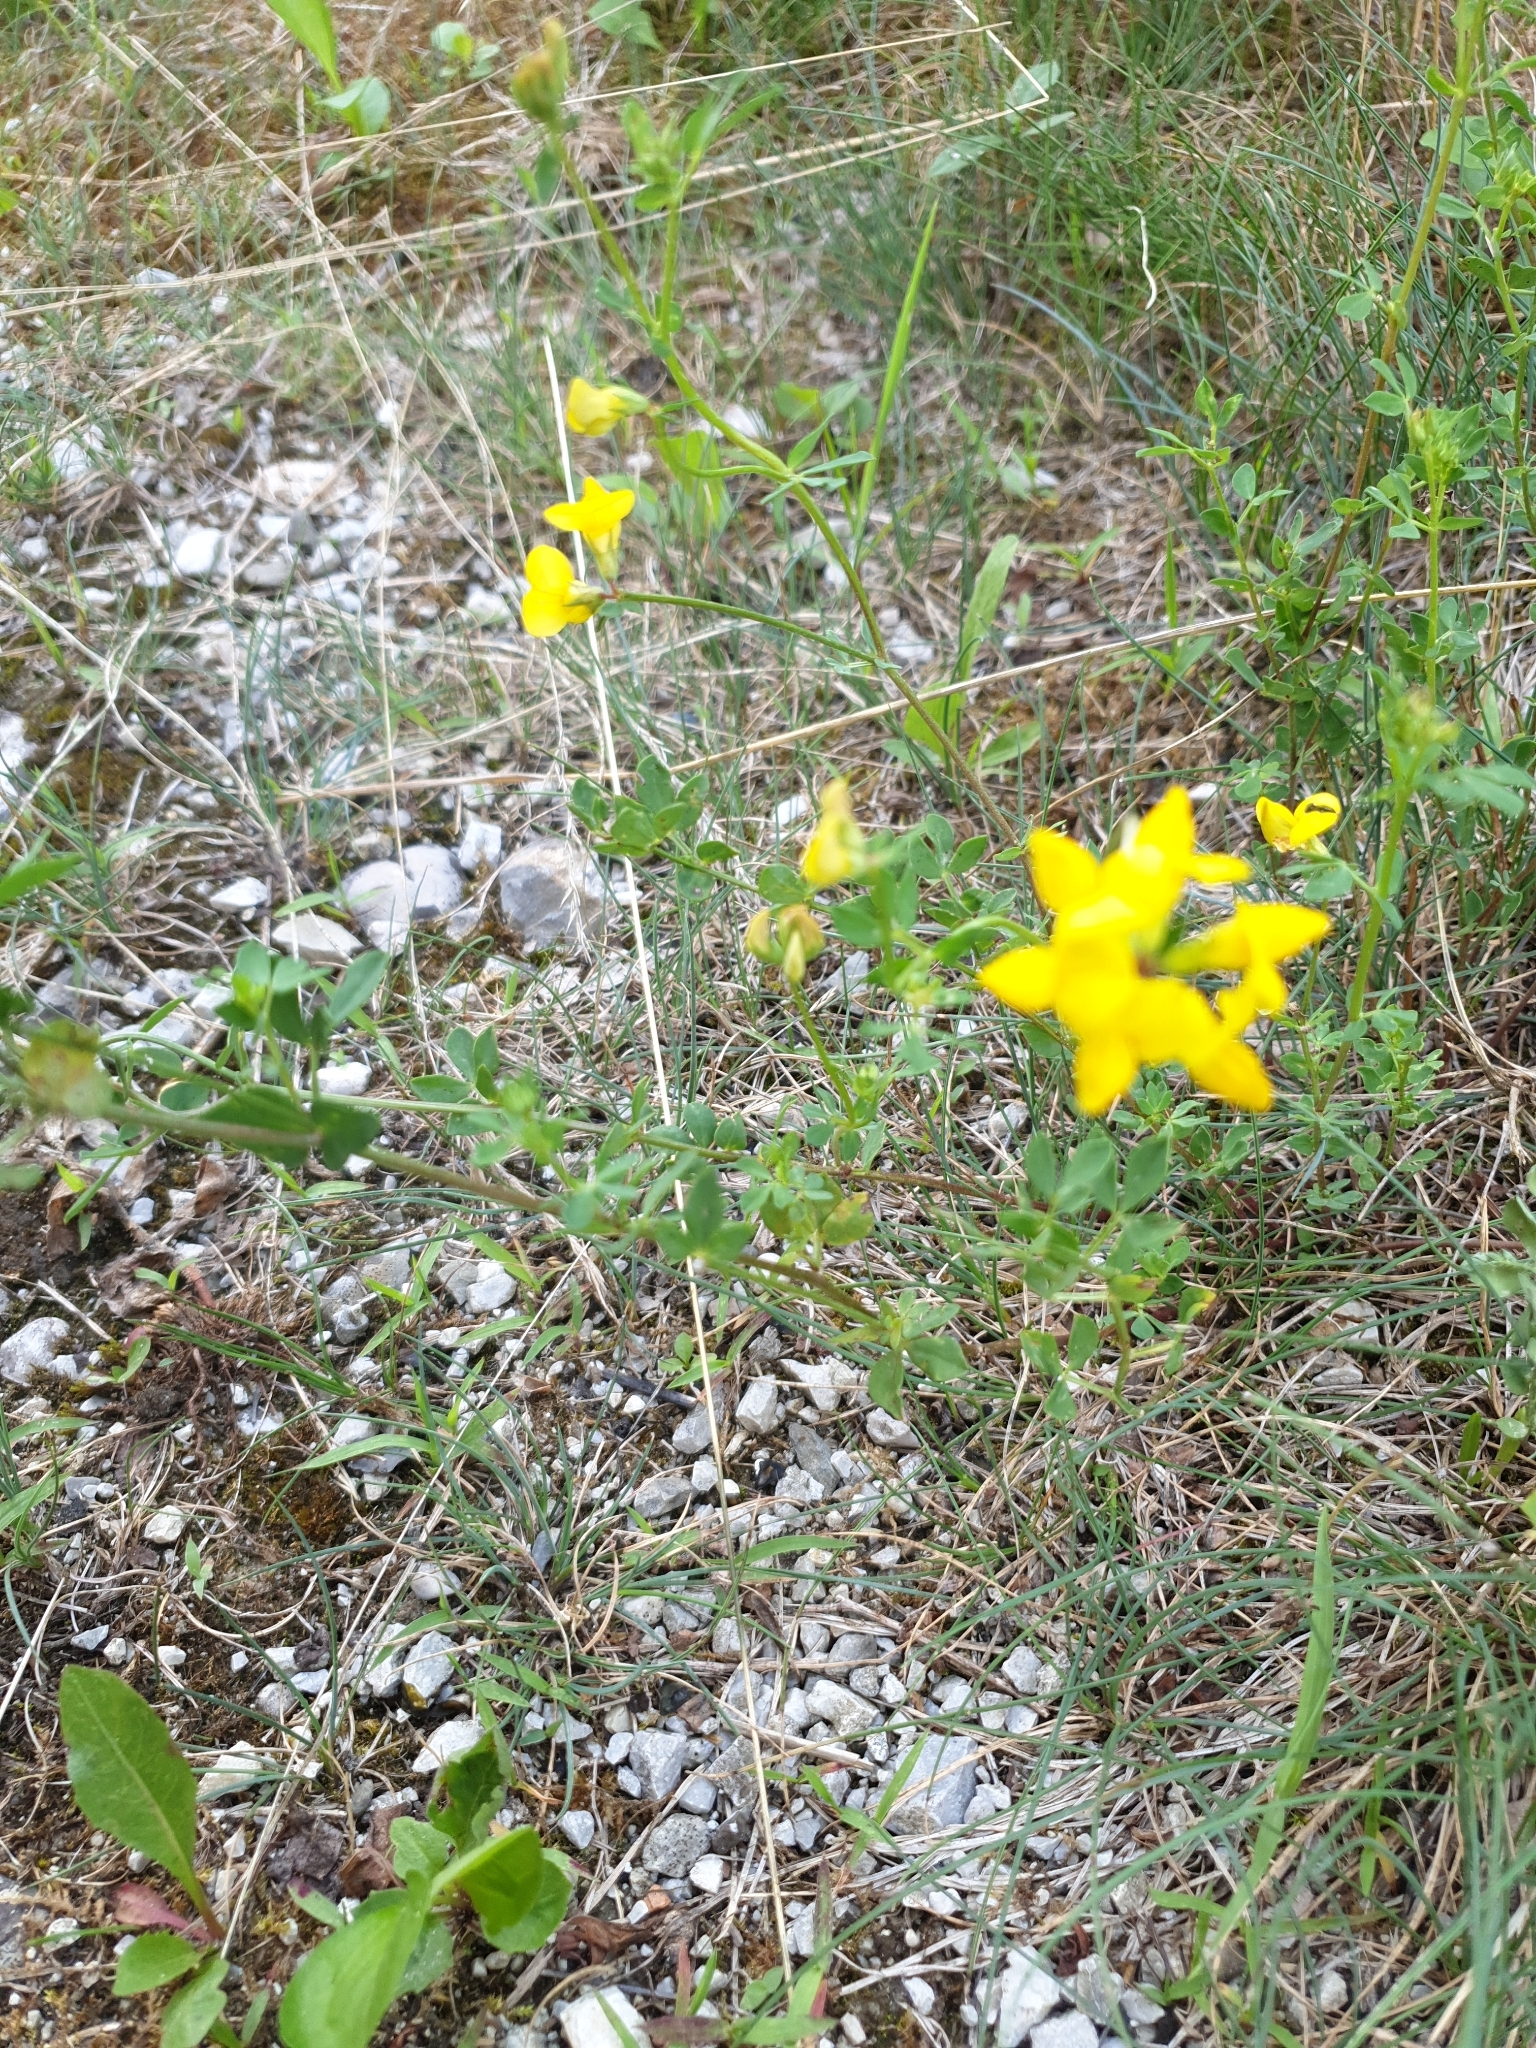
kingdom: Plantae
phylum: Tracheophyta
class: Magnoliopsida
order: Fabales
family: Fabaceae
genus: Lotus
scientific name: Lotus corniculatus
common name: Common bird's-foot-trefoil
